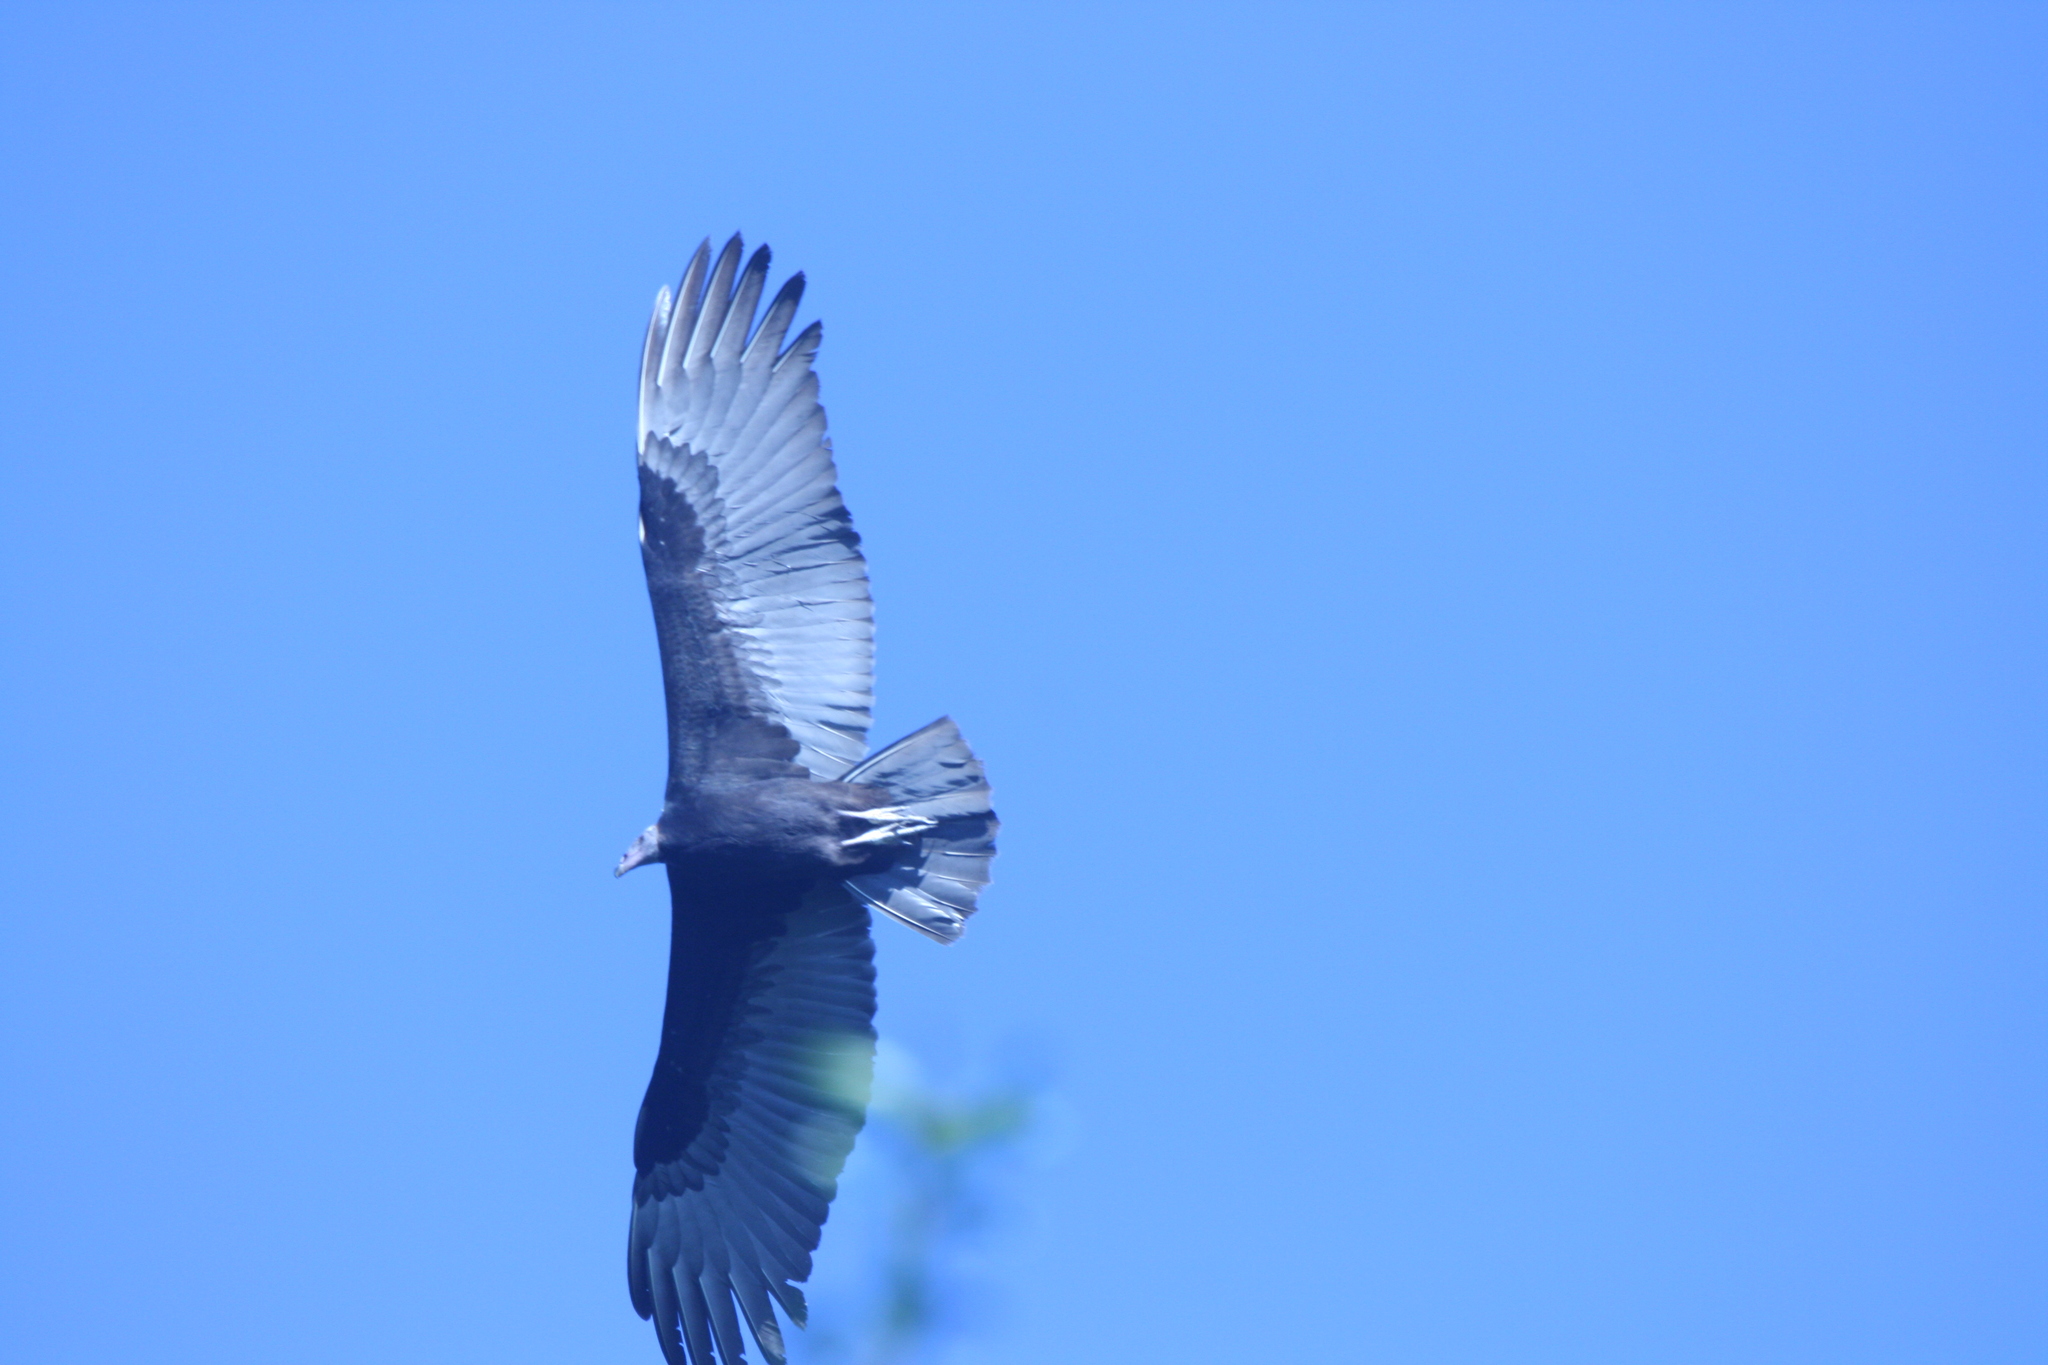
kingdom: Animalia
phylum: Chordata
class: Aves
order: Accipitriformes
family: Cathartidae
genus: Cathartes
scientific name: Cathartes aura
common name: Turkey vulture
